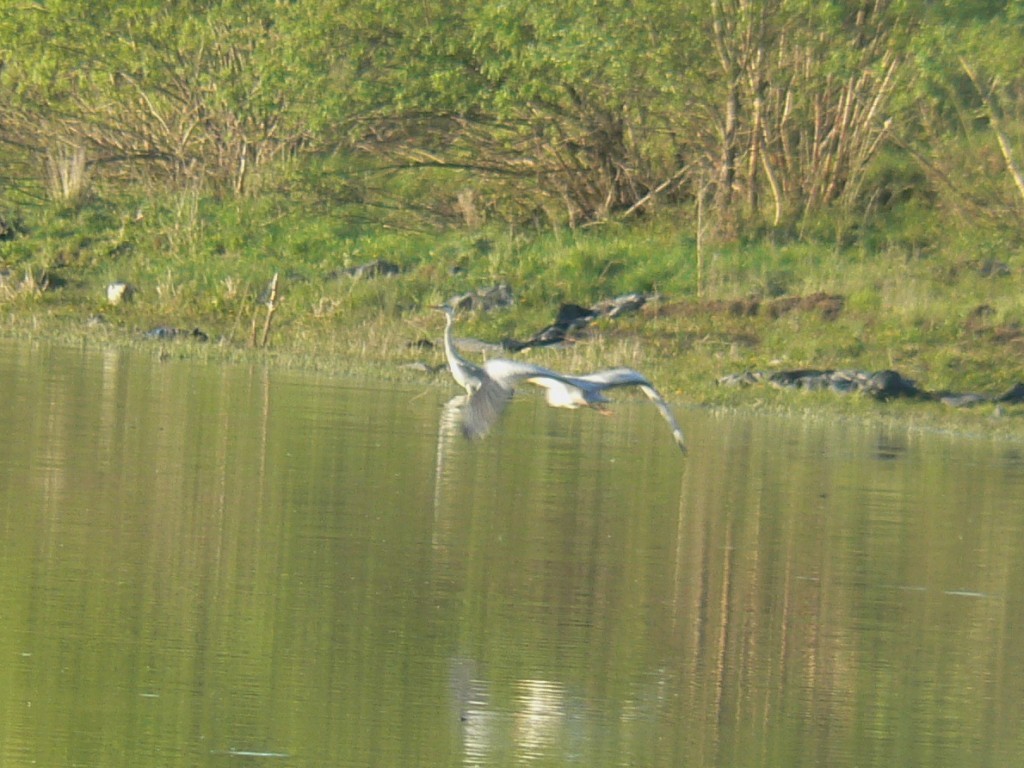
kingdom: Animalia
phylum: Chordata
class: Aves
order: Pelecaniformes
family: Ardeidae
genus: Ardea
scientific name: Ardea cinerea
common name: Grey heron
